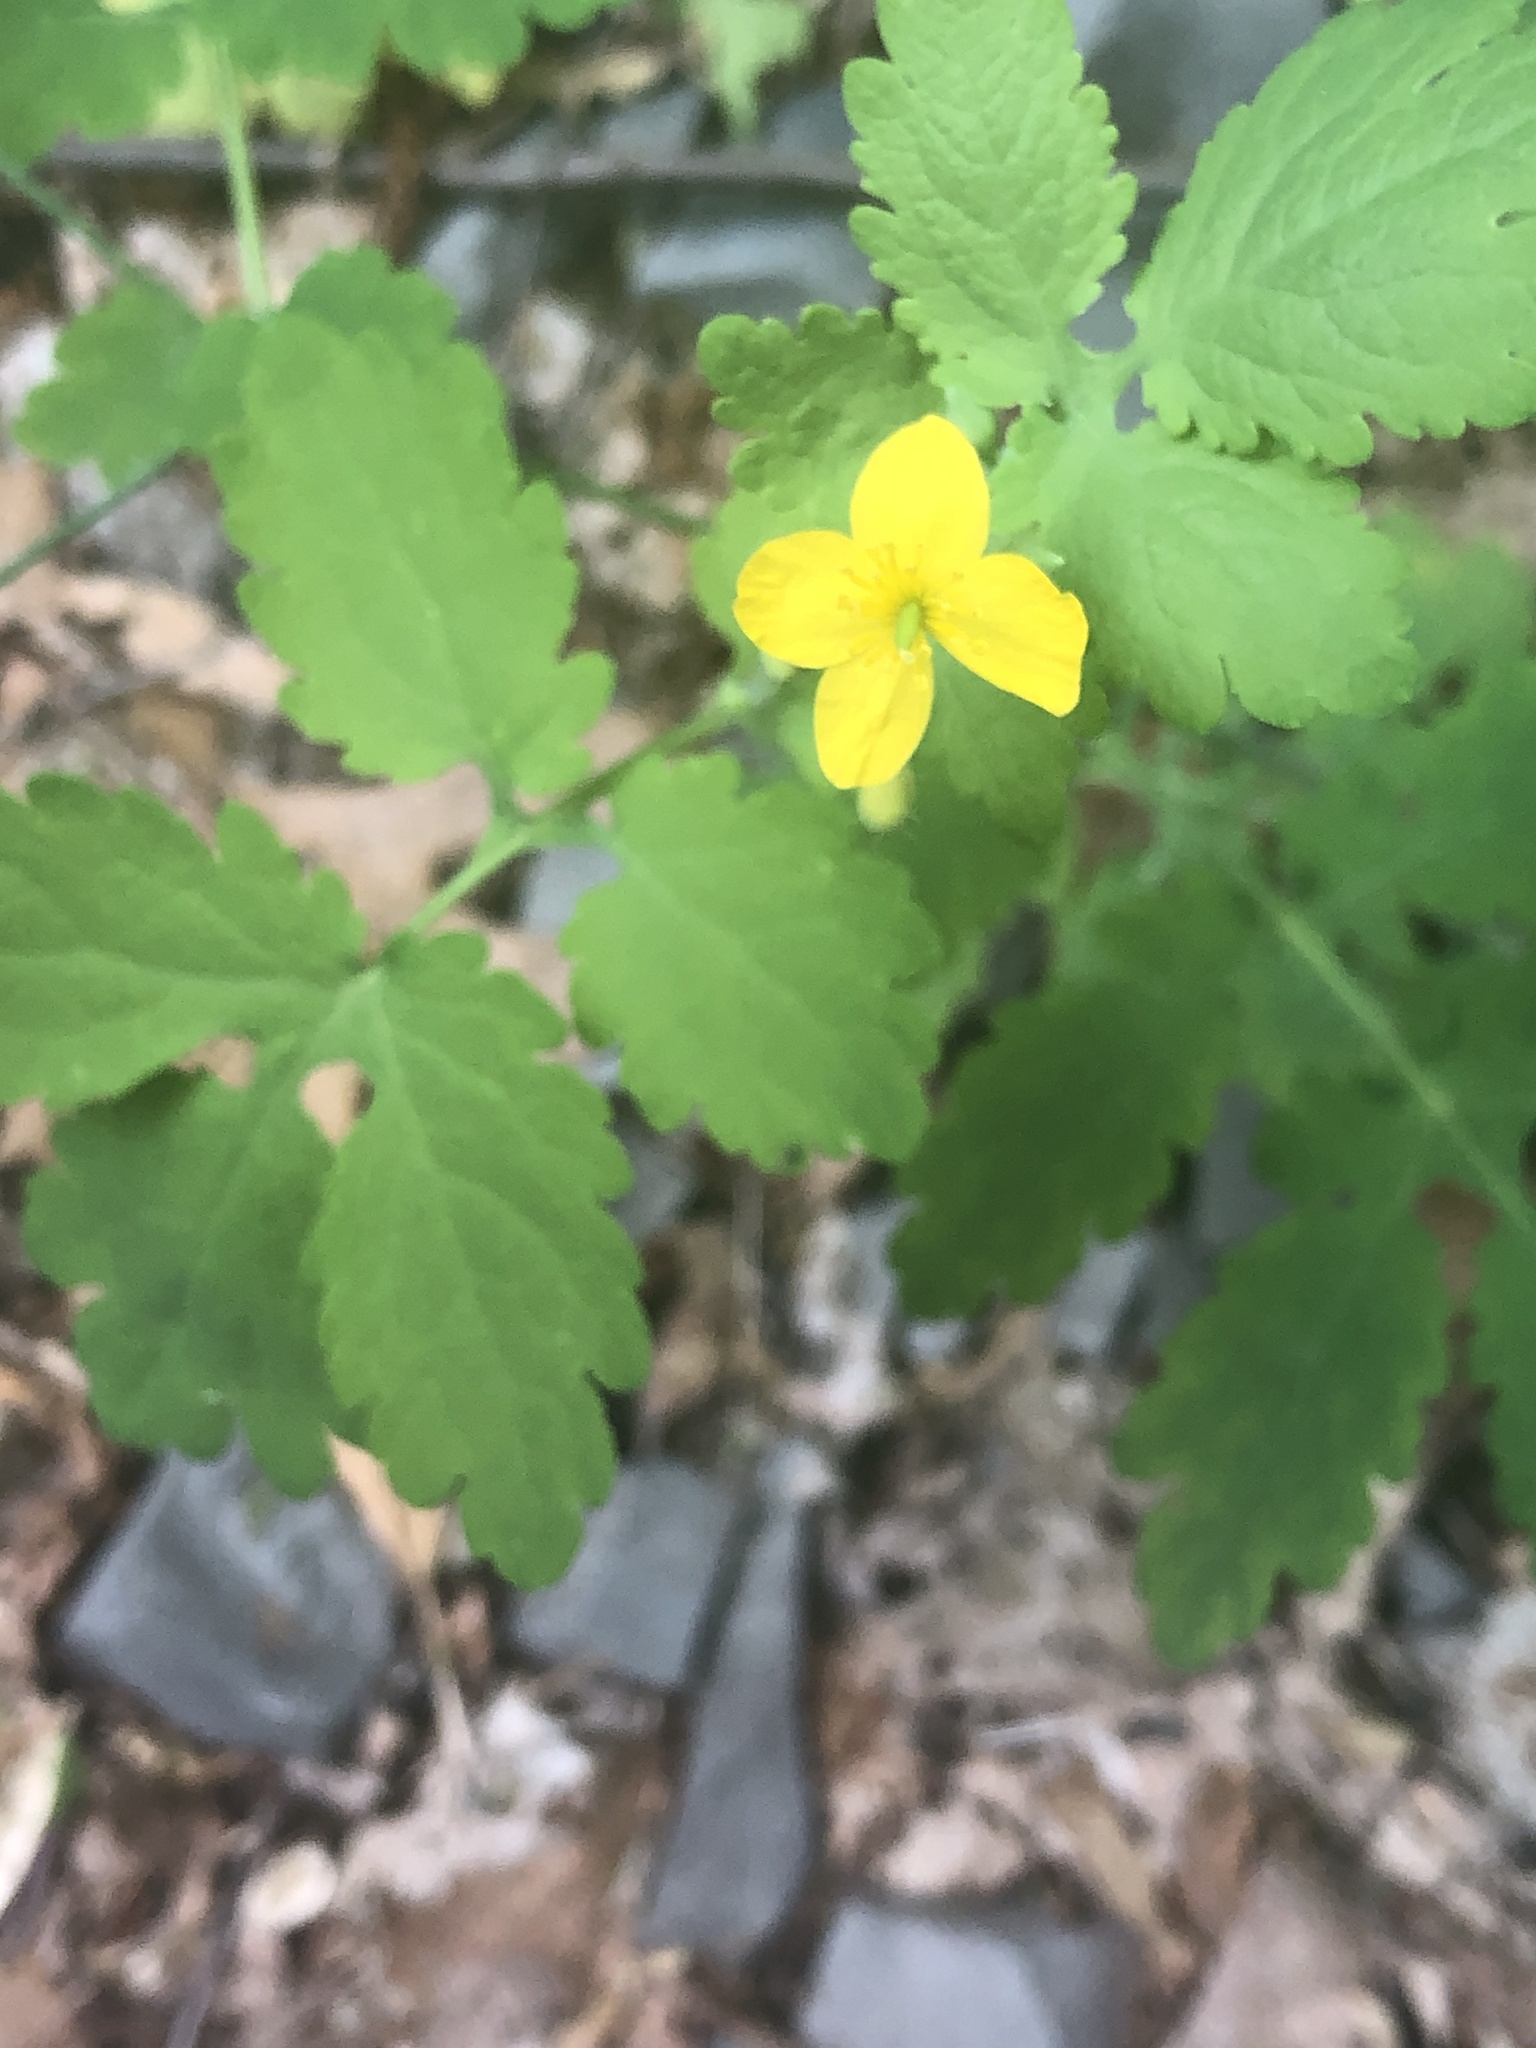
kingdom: Plantae
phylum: Tracheophyta
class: Magnoliopsida
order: Ranunculales
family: Papaveraceae
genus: Chelidonium
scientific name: Chelidonium majus
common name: Greater celandine
